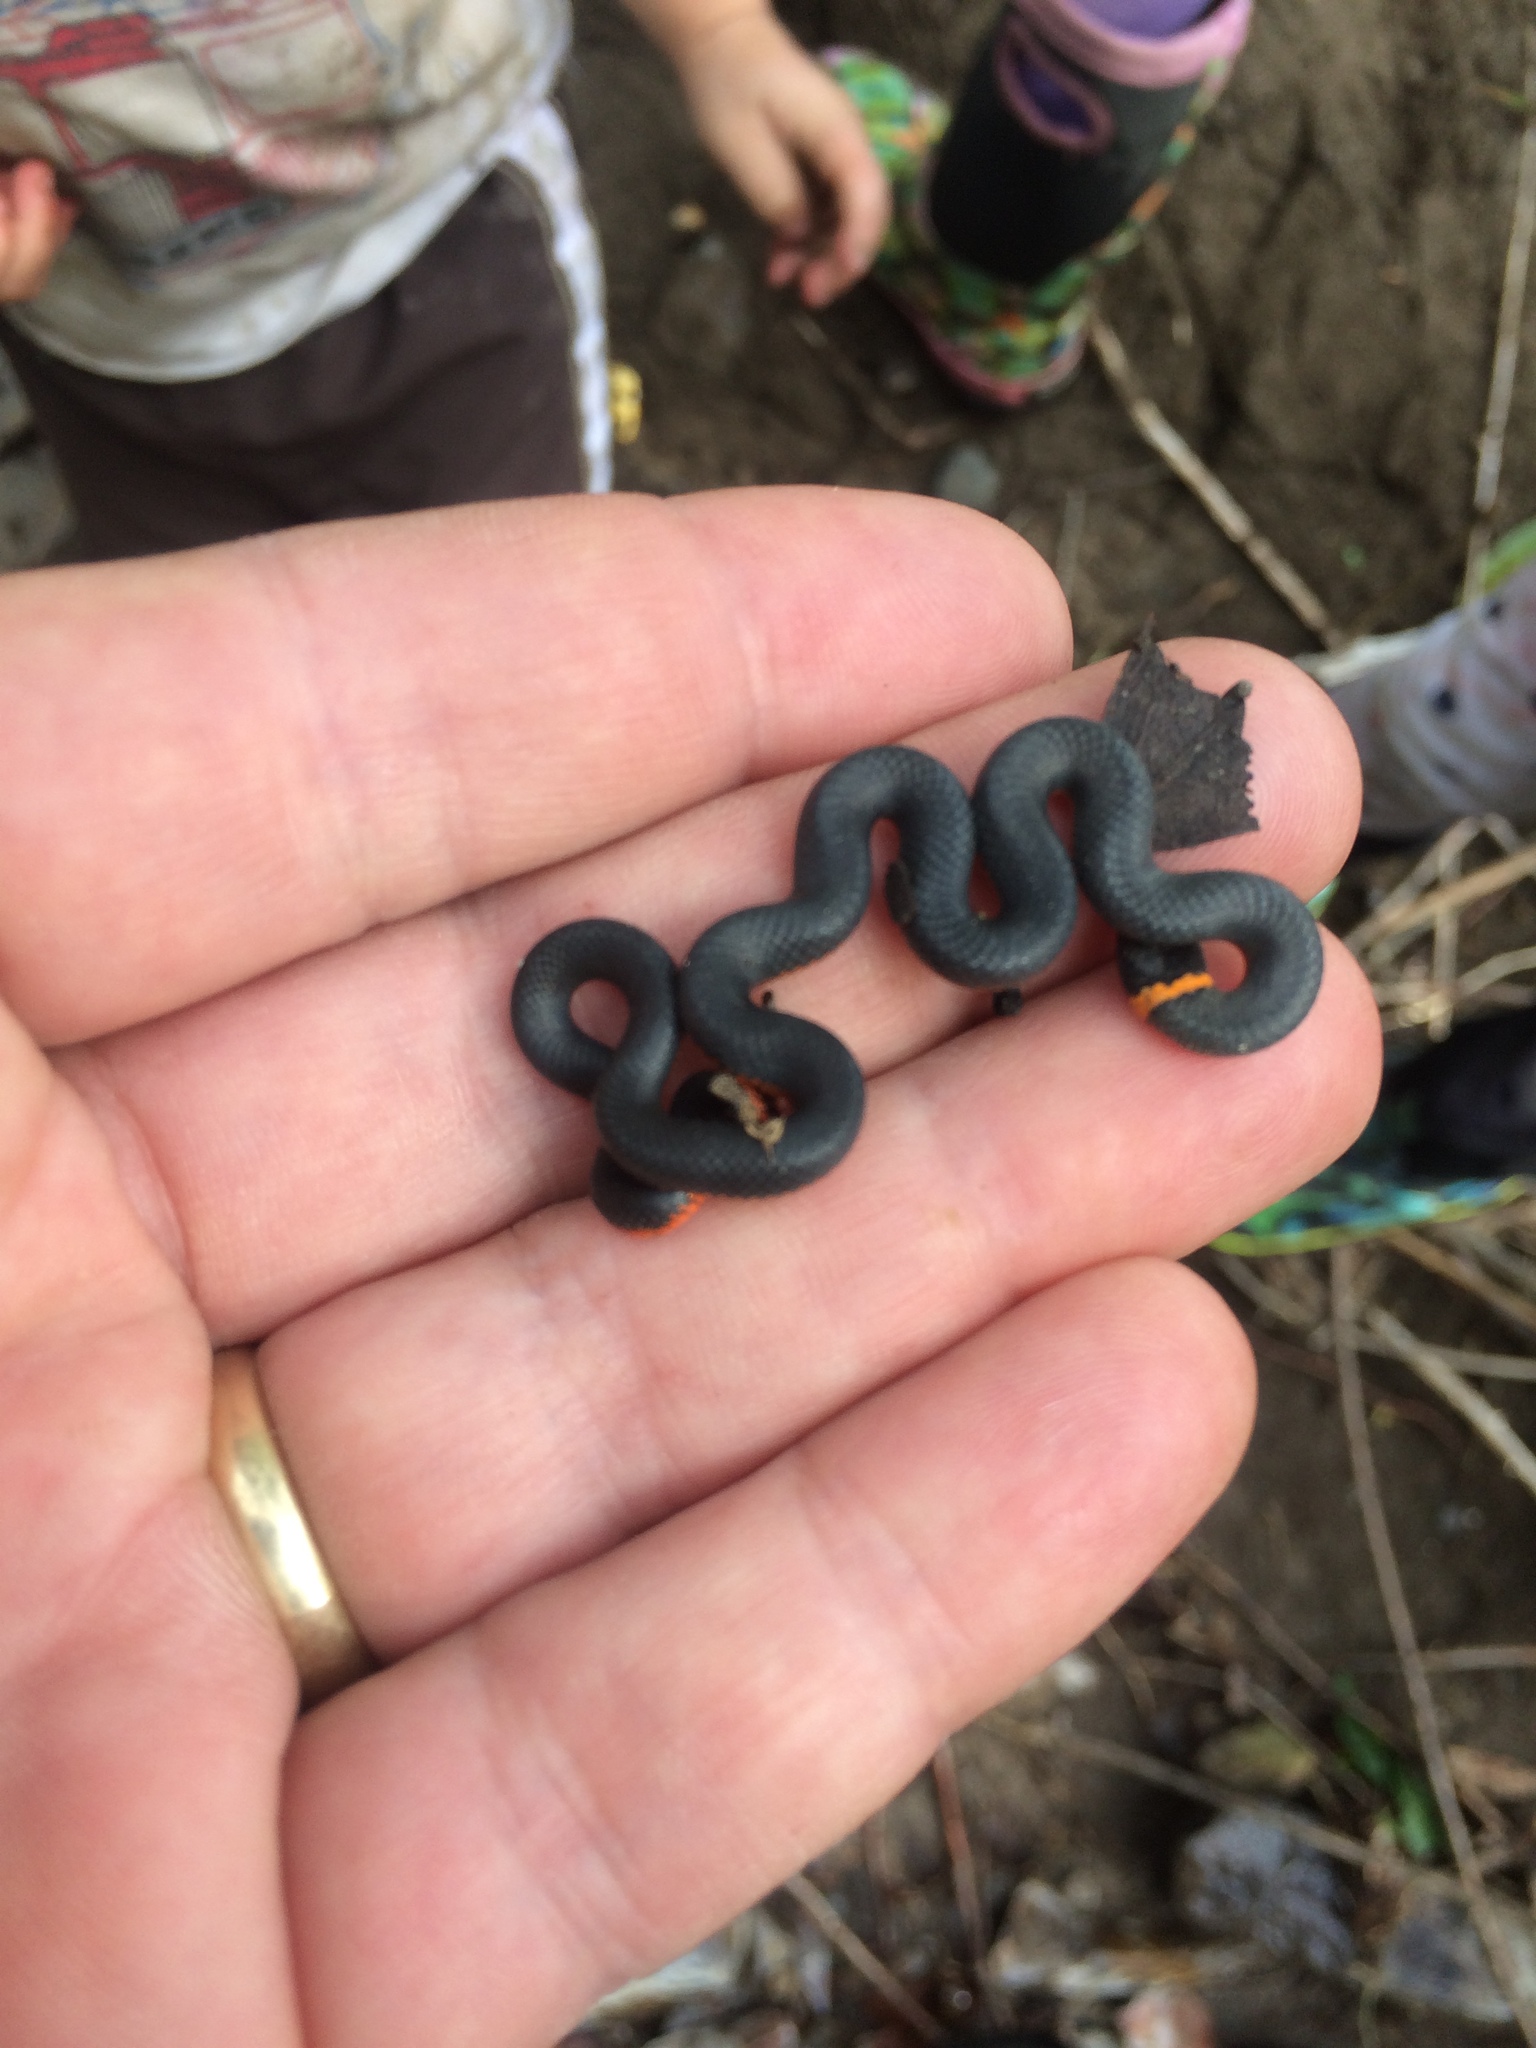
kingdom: Animalia
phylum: Chordata
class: Squamata
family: Colubridae
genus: Diadophis
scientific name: Diadophis punctatus
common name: Ringneck snake
